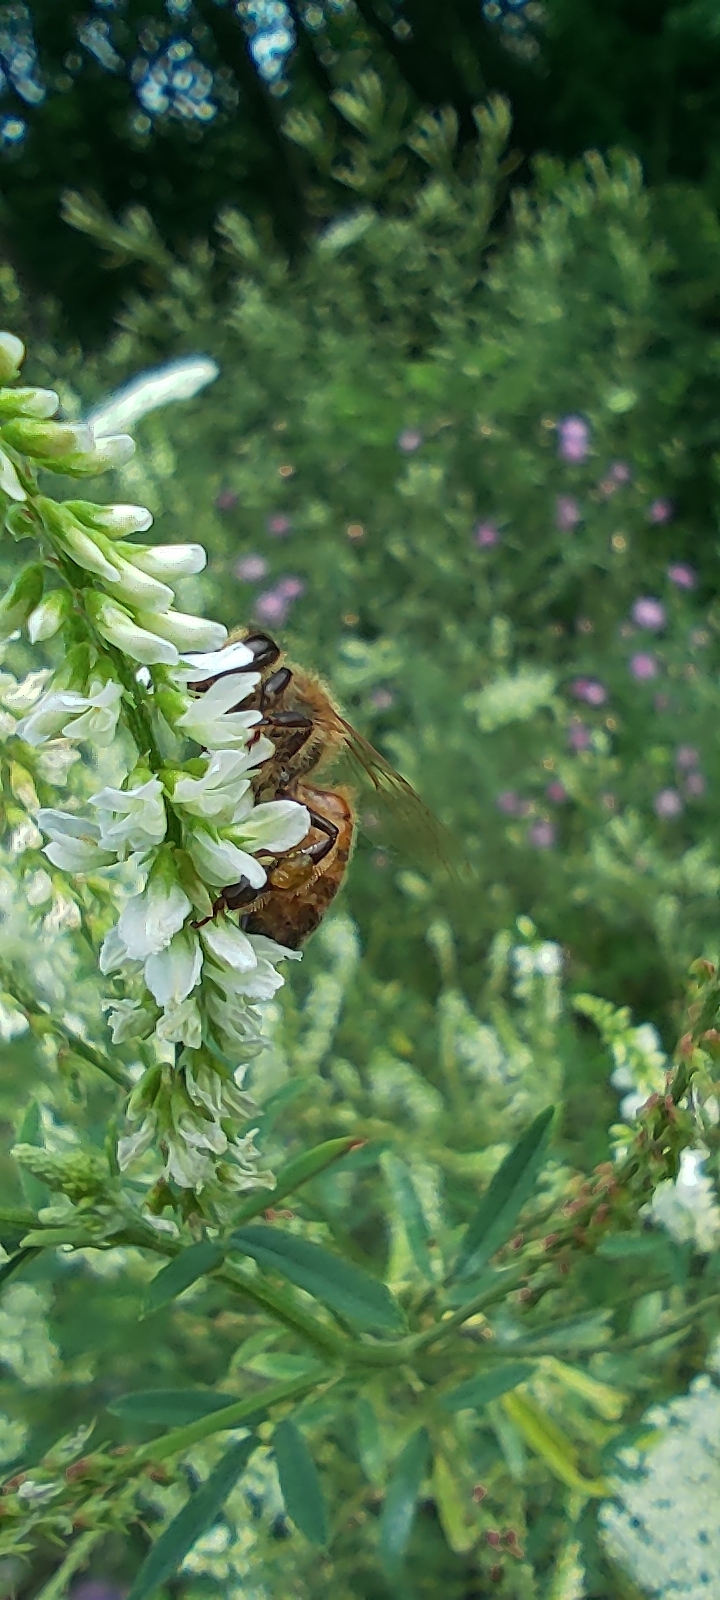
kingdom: Animalia
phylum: Arthropoda
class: Insecta
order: Hymenoptera
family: Apidae
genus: Apis
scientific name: Apis mellifera
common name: Honey bee
